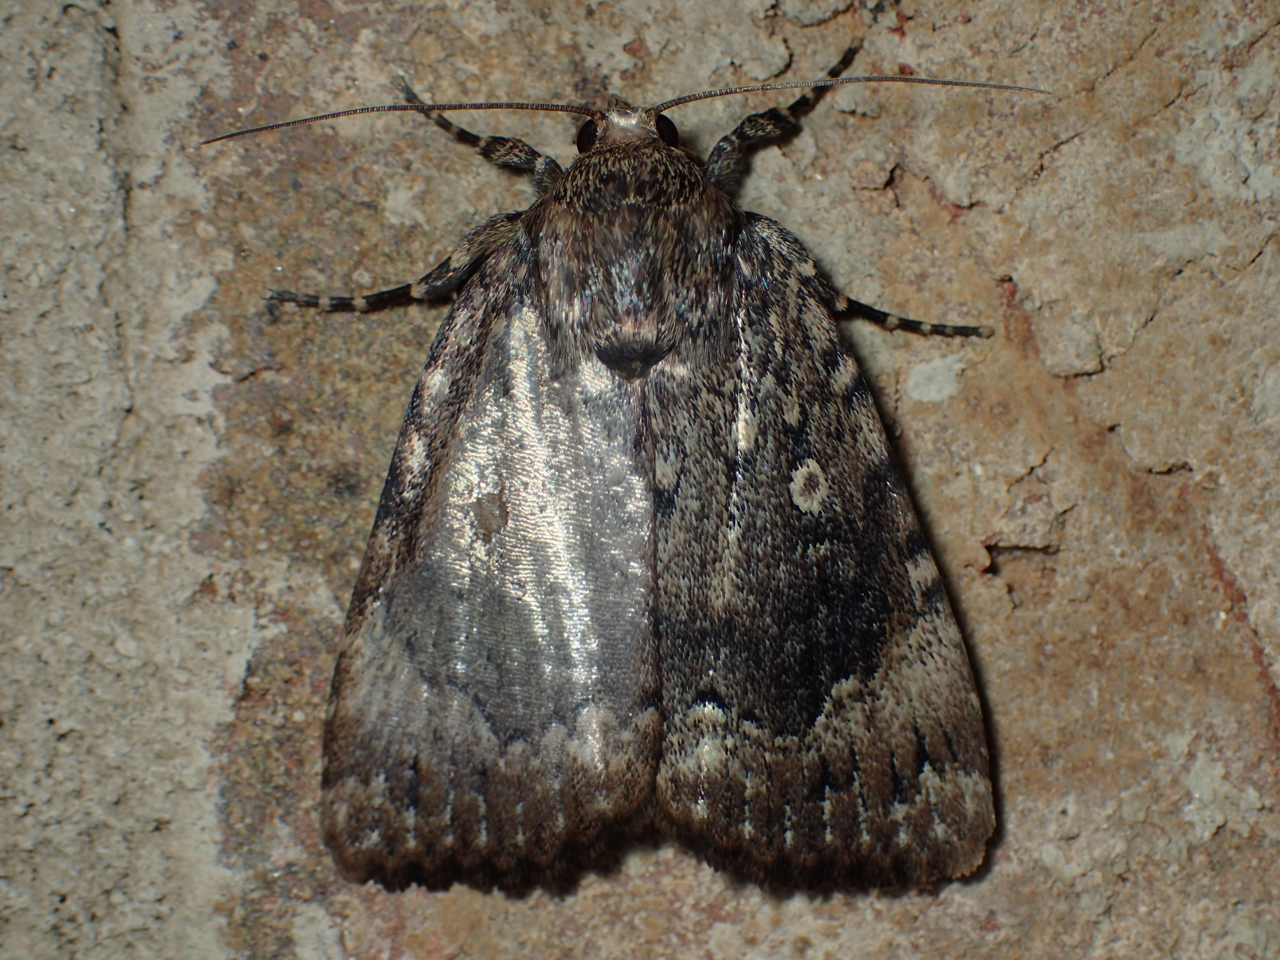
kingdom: Animalia
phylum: Arthropoda
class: Insecta
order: Lepidoptera
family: Noctuidae
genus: Amphipyra
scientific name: Amphipyra pyramidoides
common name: American copper underwing
